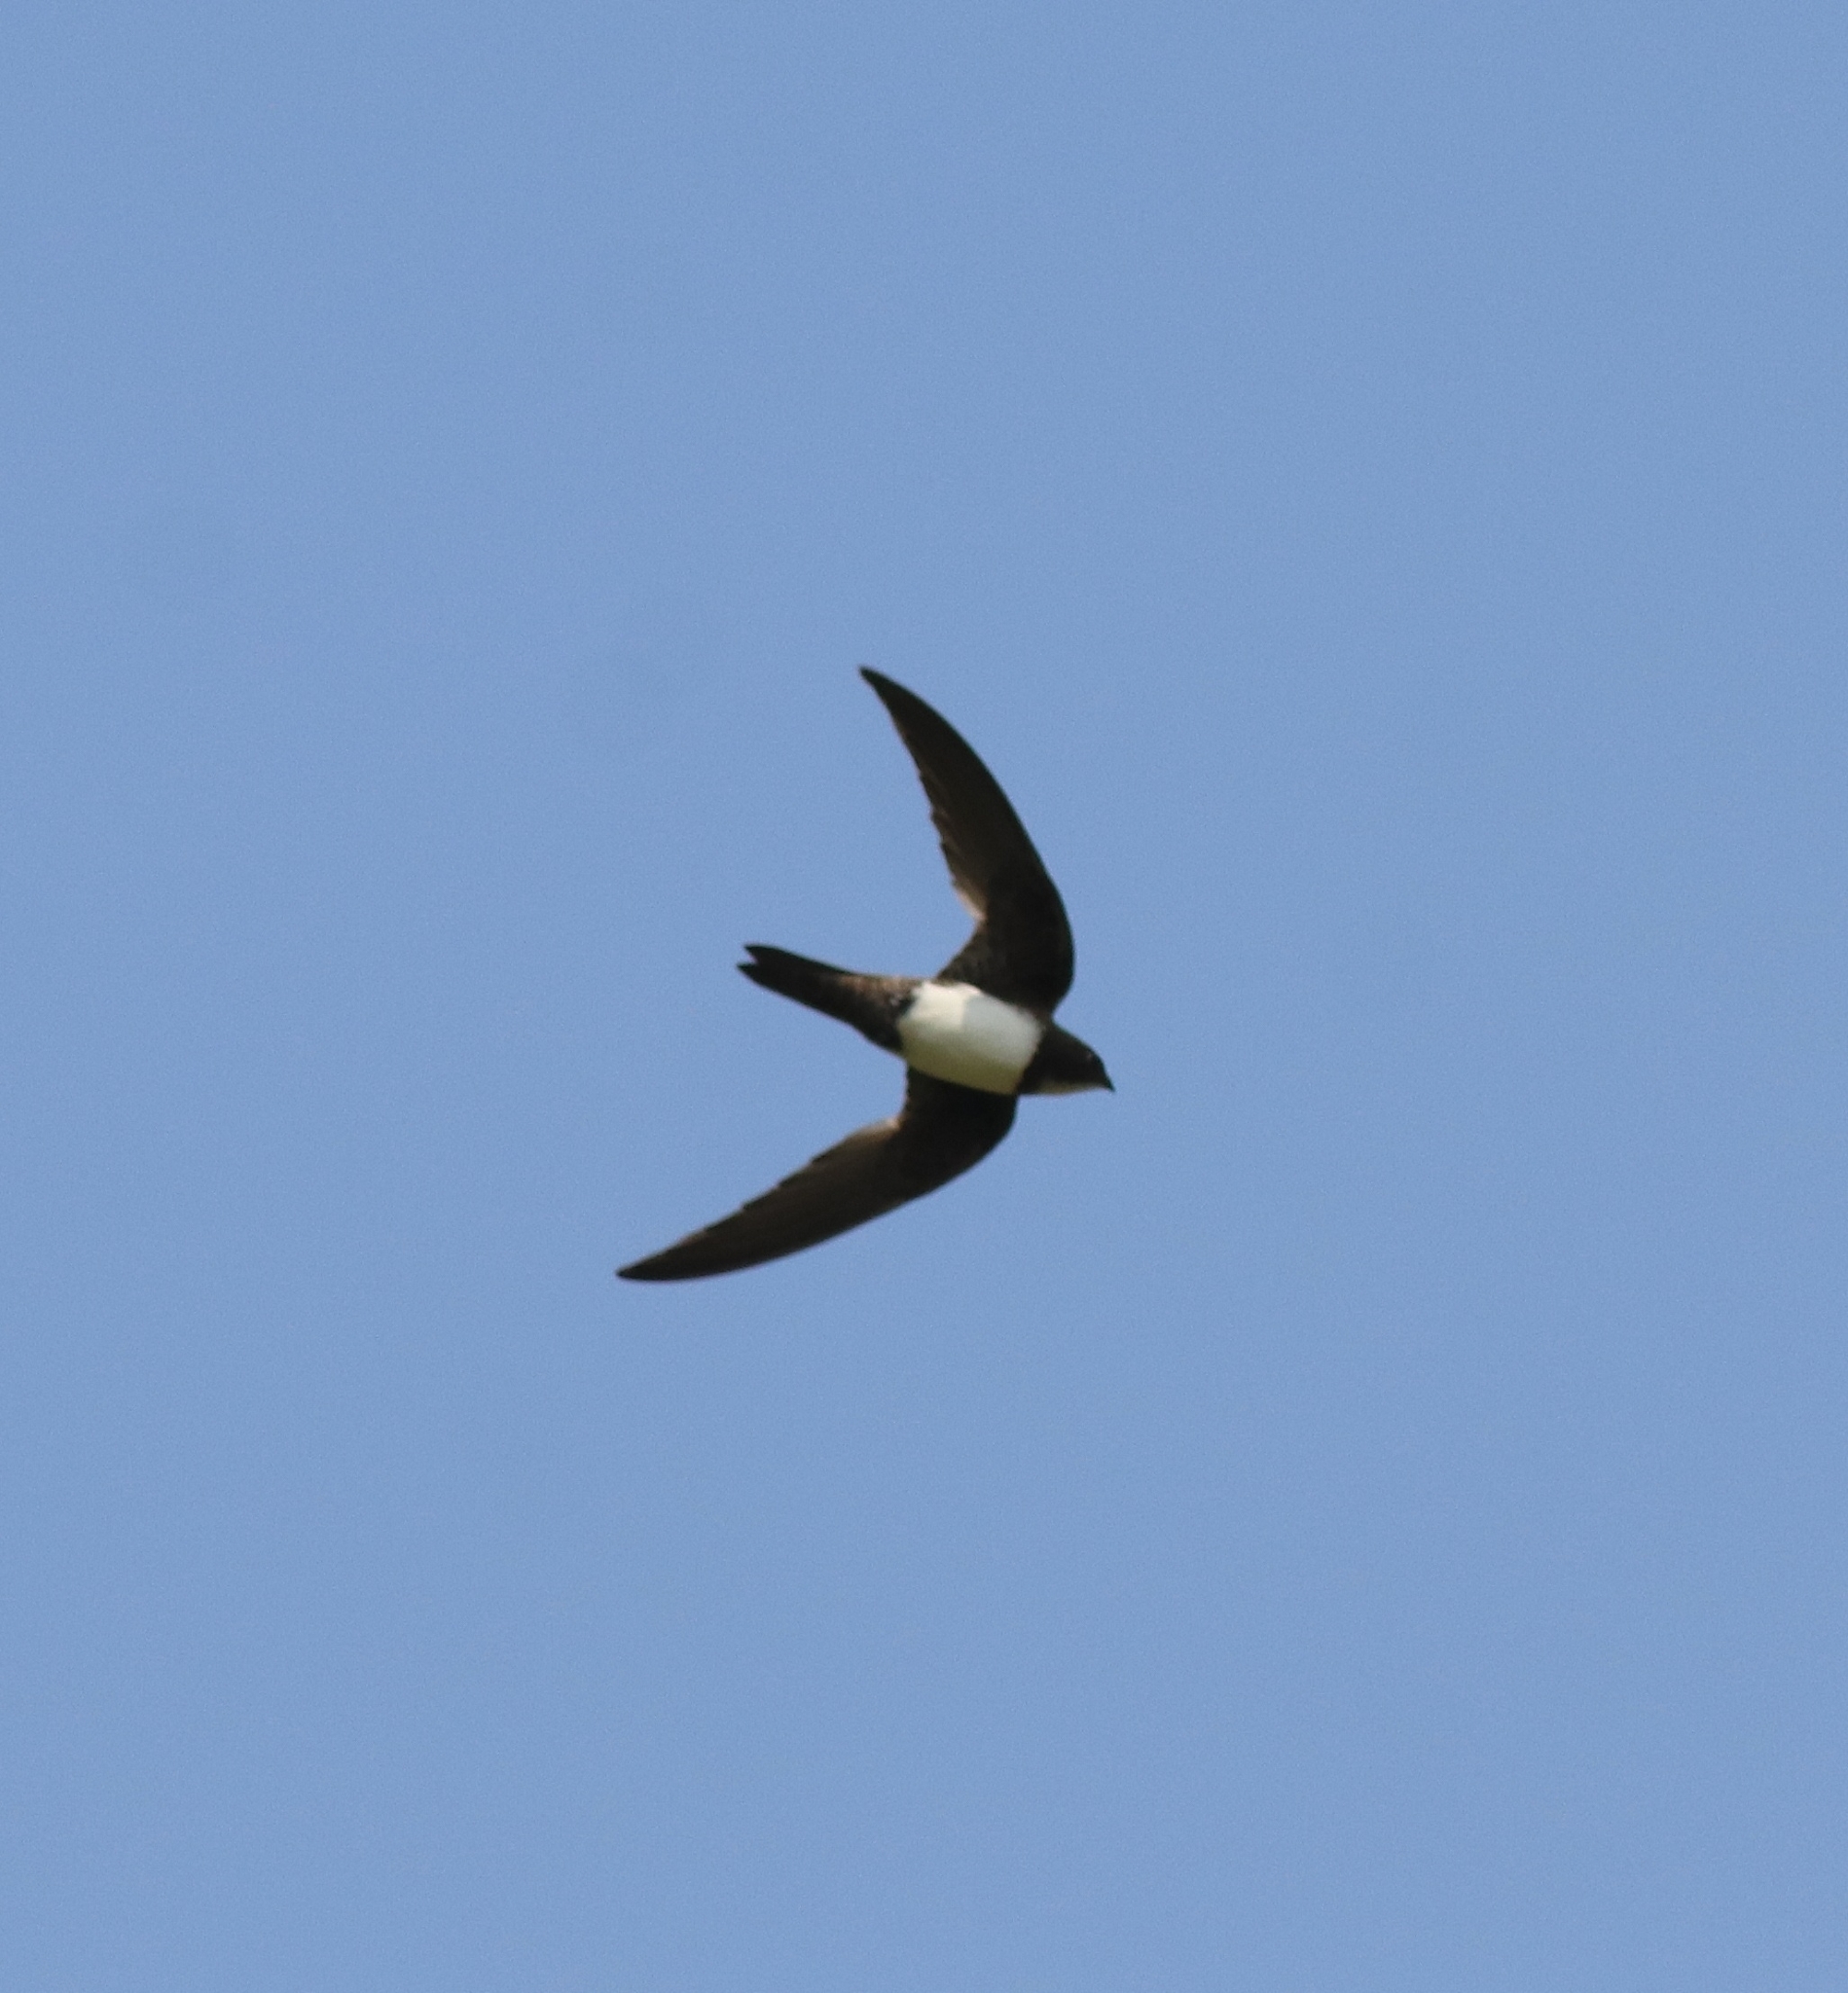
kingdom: Animalia
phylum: Chordata
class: Aves
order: Apodiformes
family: Apodidae
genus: Tachymarptis
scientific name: Tachymarptis melba
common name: Alpine swift
